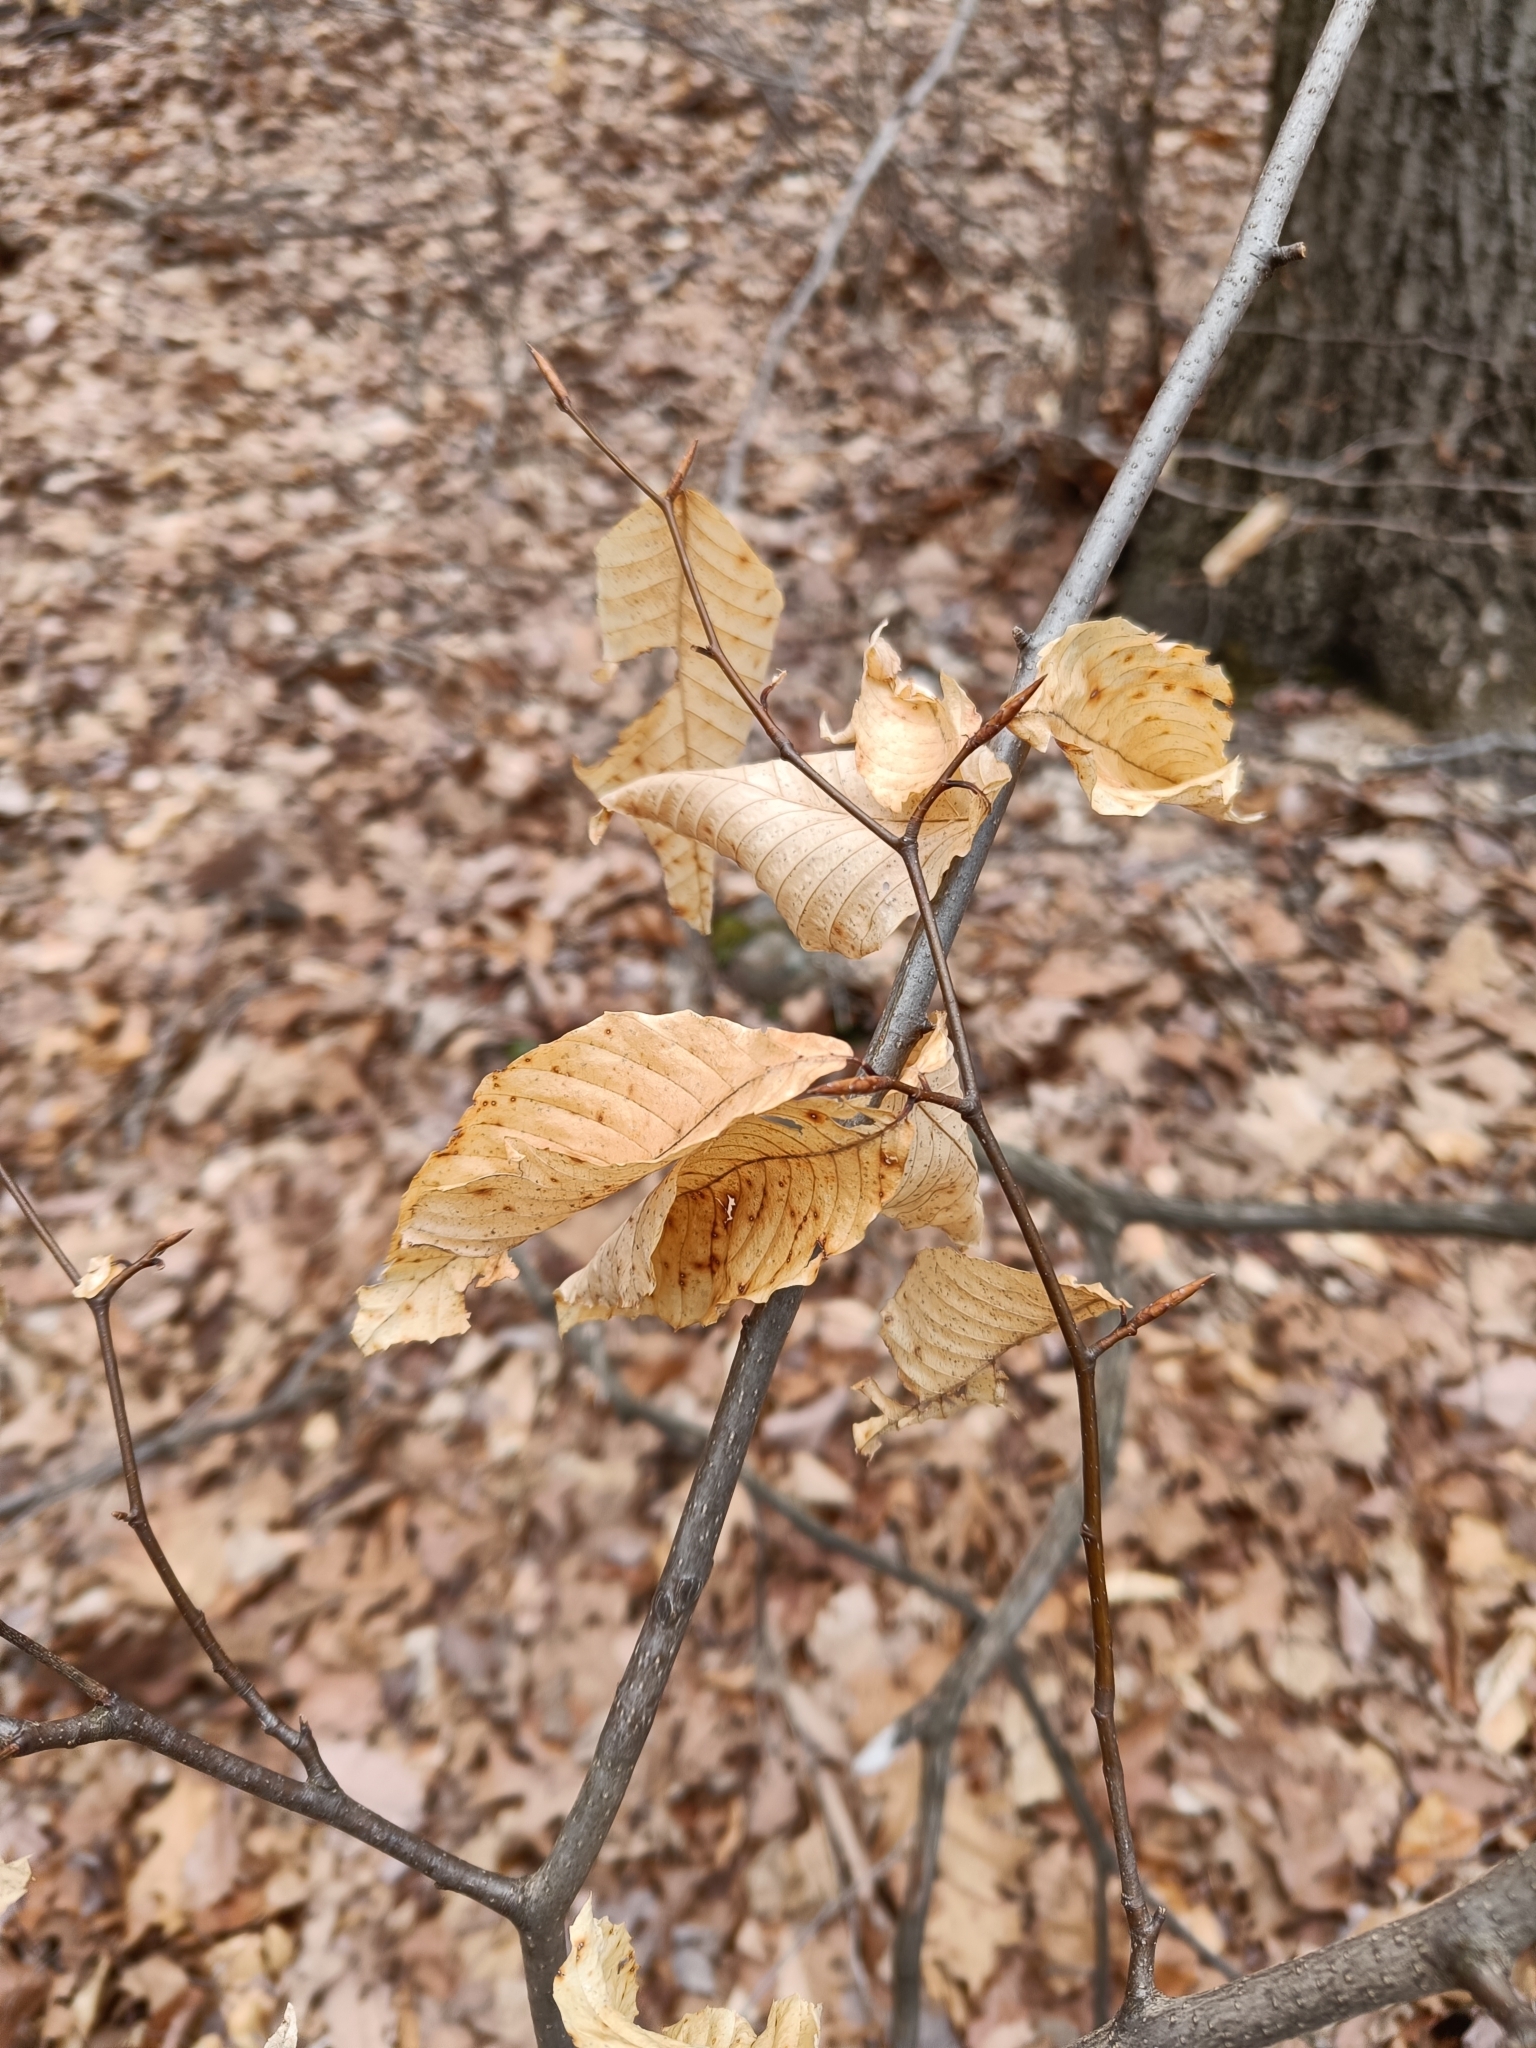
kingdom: Plantae
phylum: Tracheophyta
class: Magnoliopsida
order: Fagales
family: Fagaceae
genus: Fagus
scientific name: Fagus grandifolia
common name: American beech
